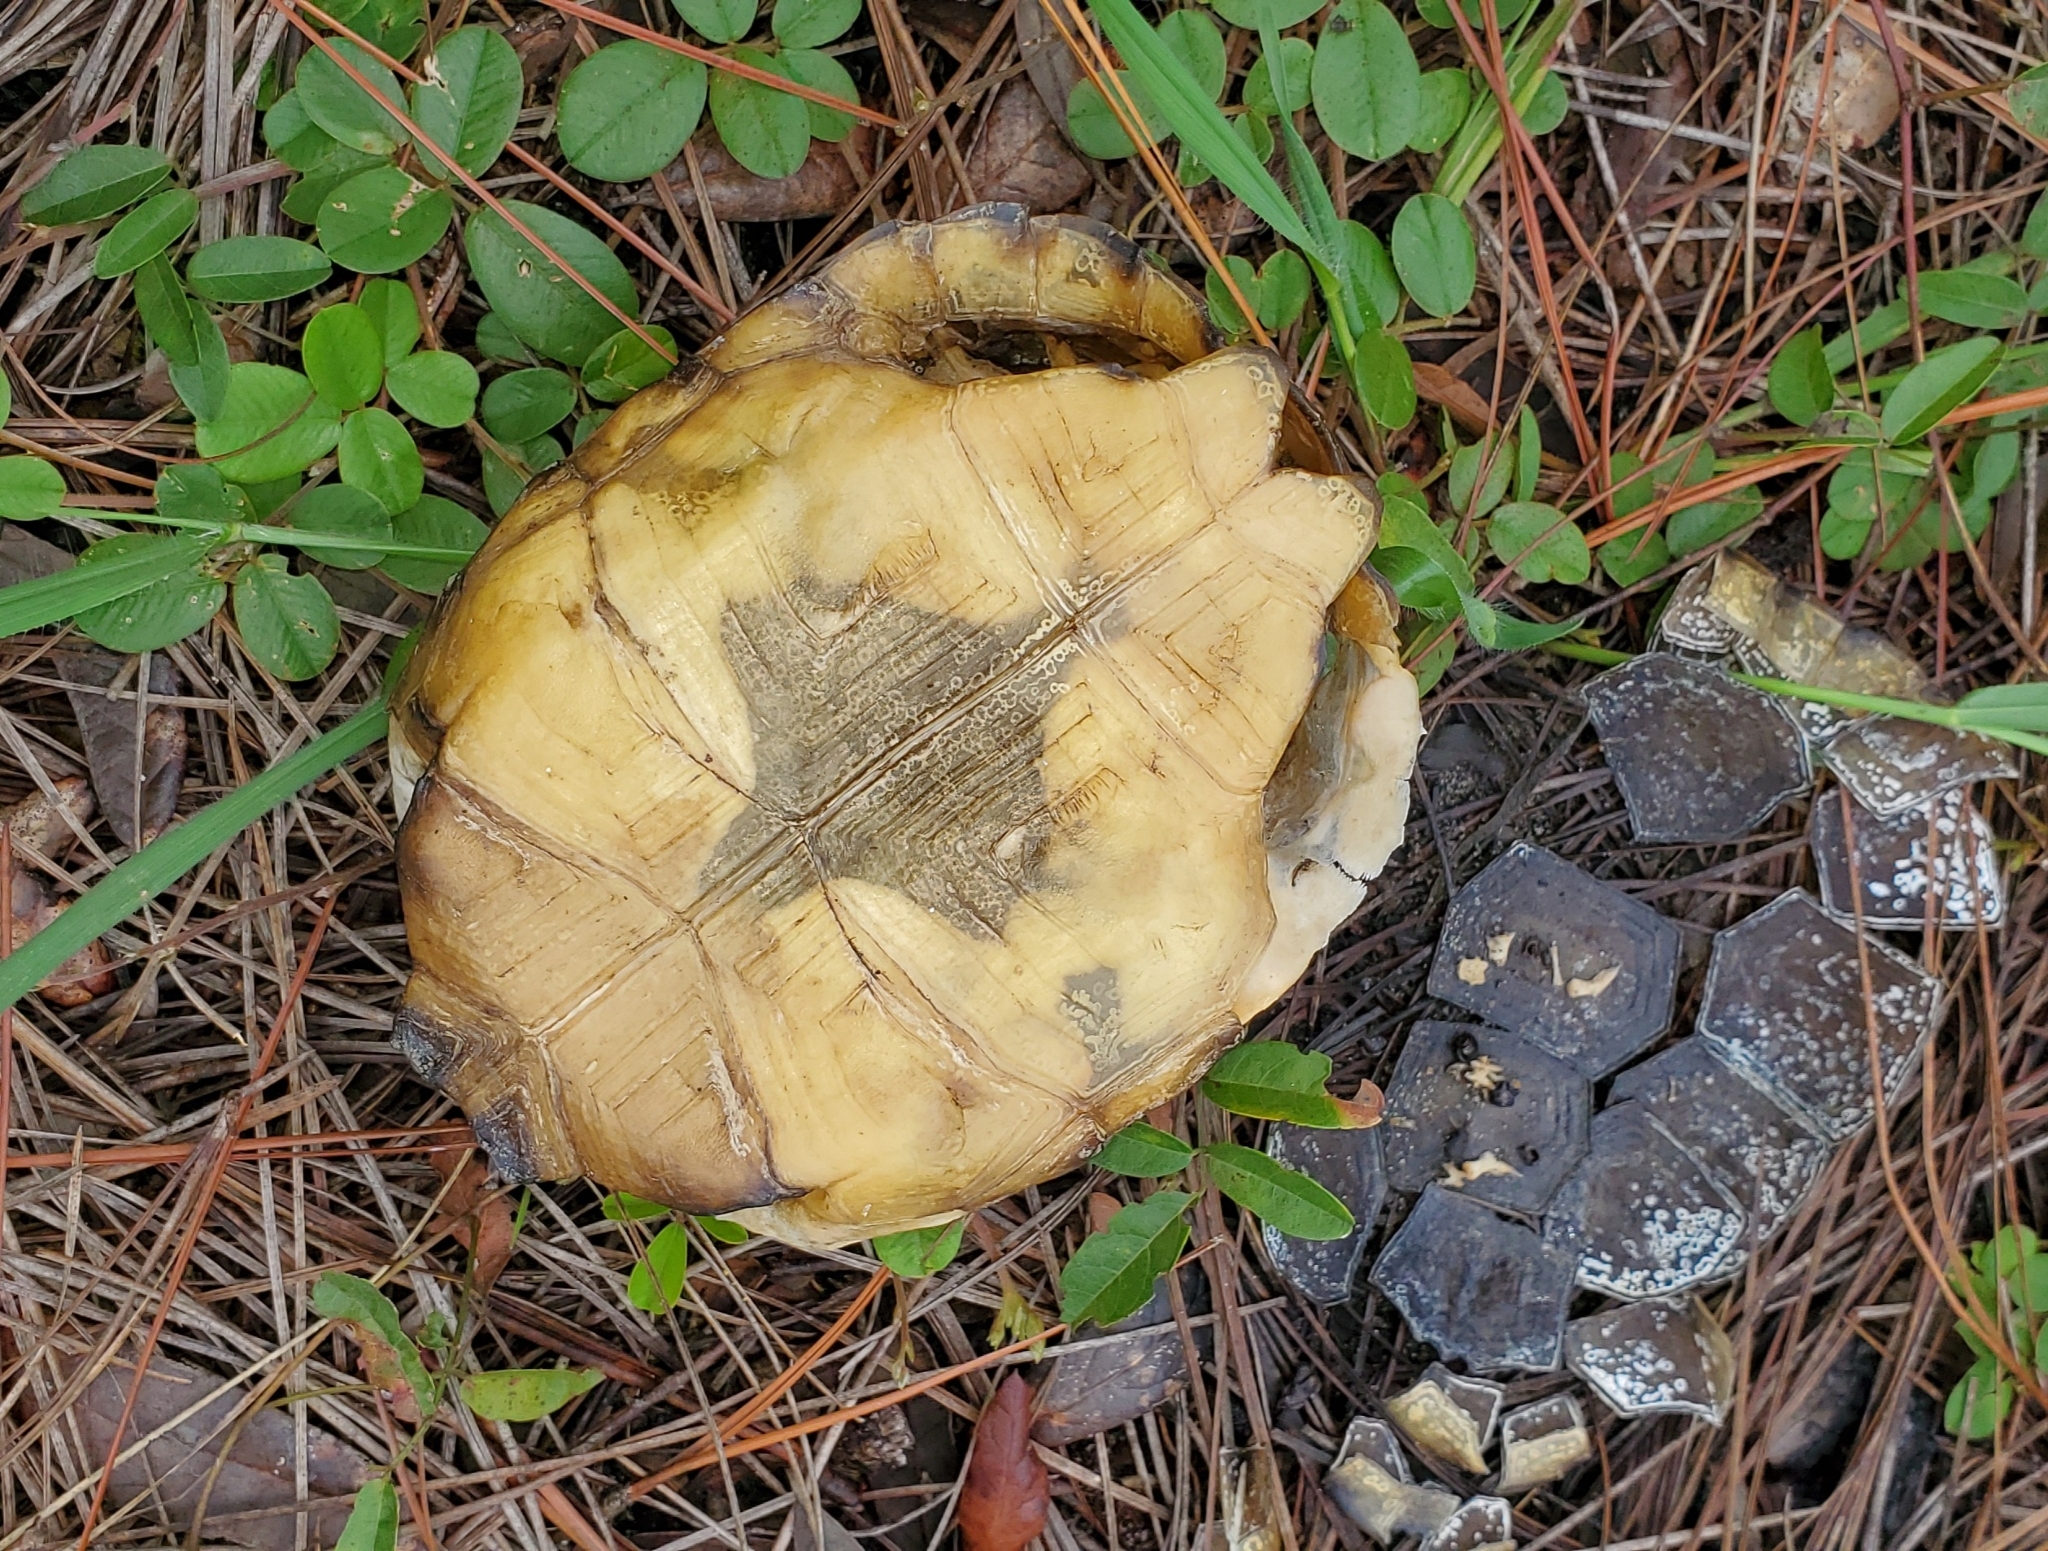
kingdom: Animalia
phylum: Chordata
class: Testudines
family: Testudinidae
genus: Gopherus
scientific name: Gopherus polyphemus
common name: Florida gopher tortoise
